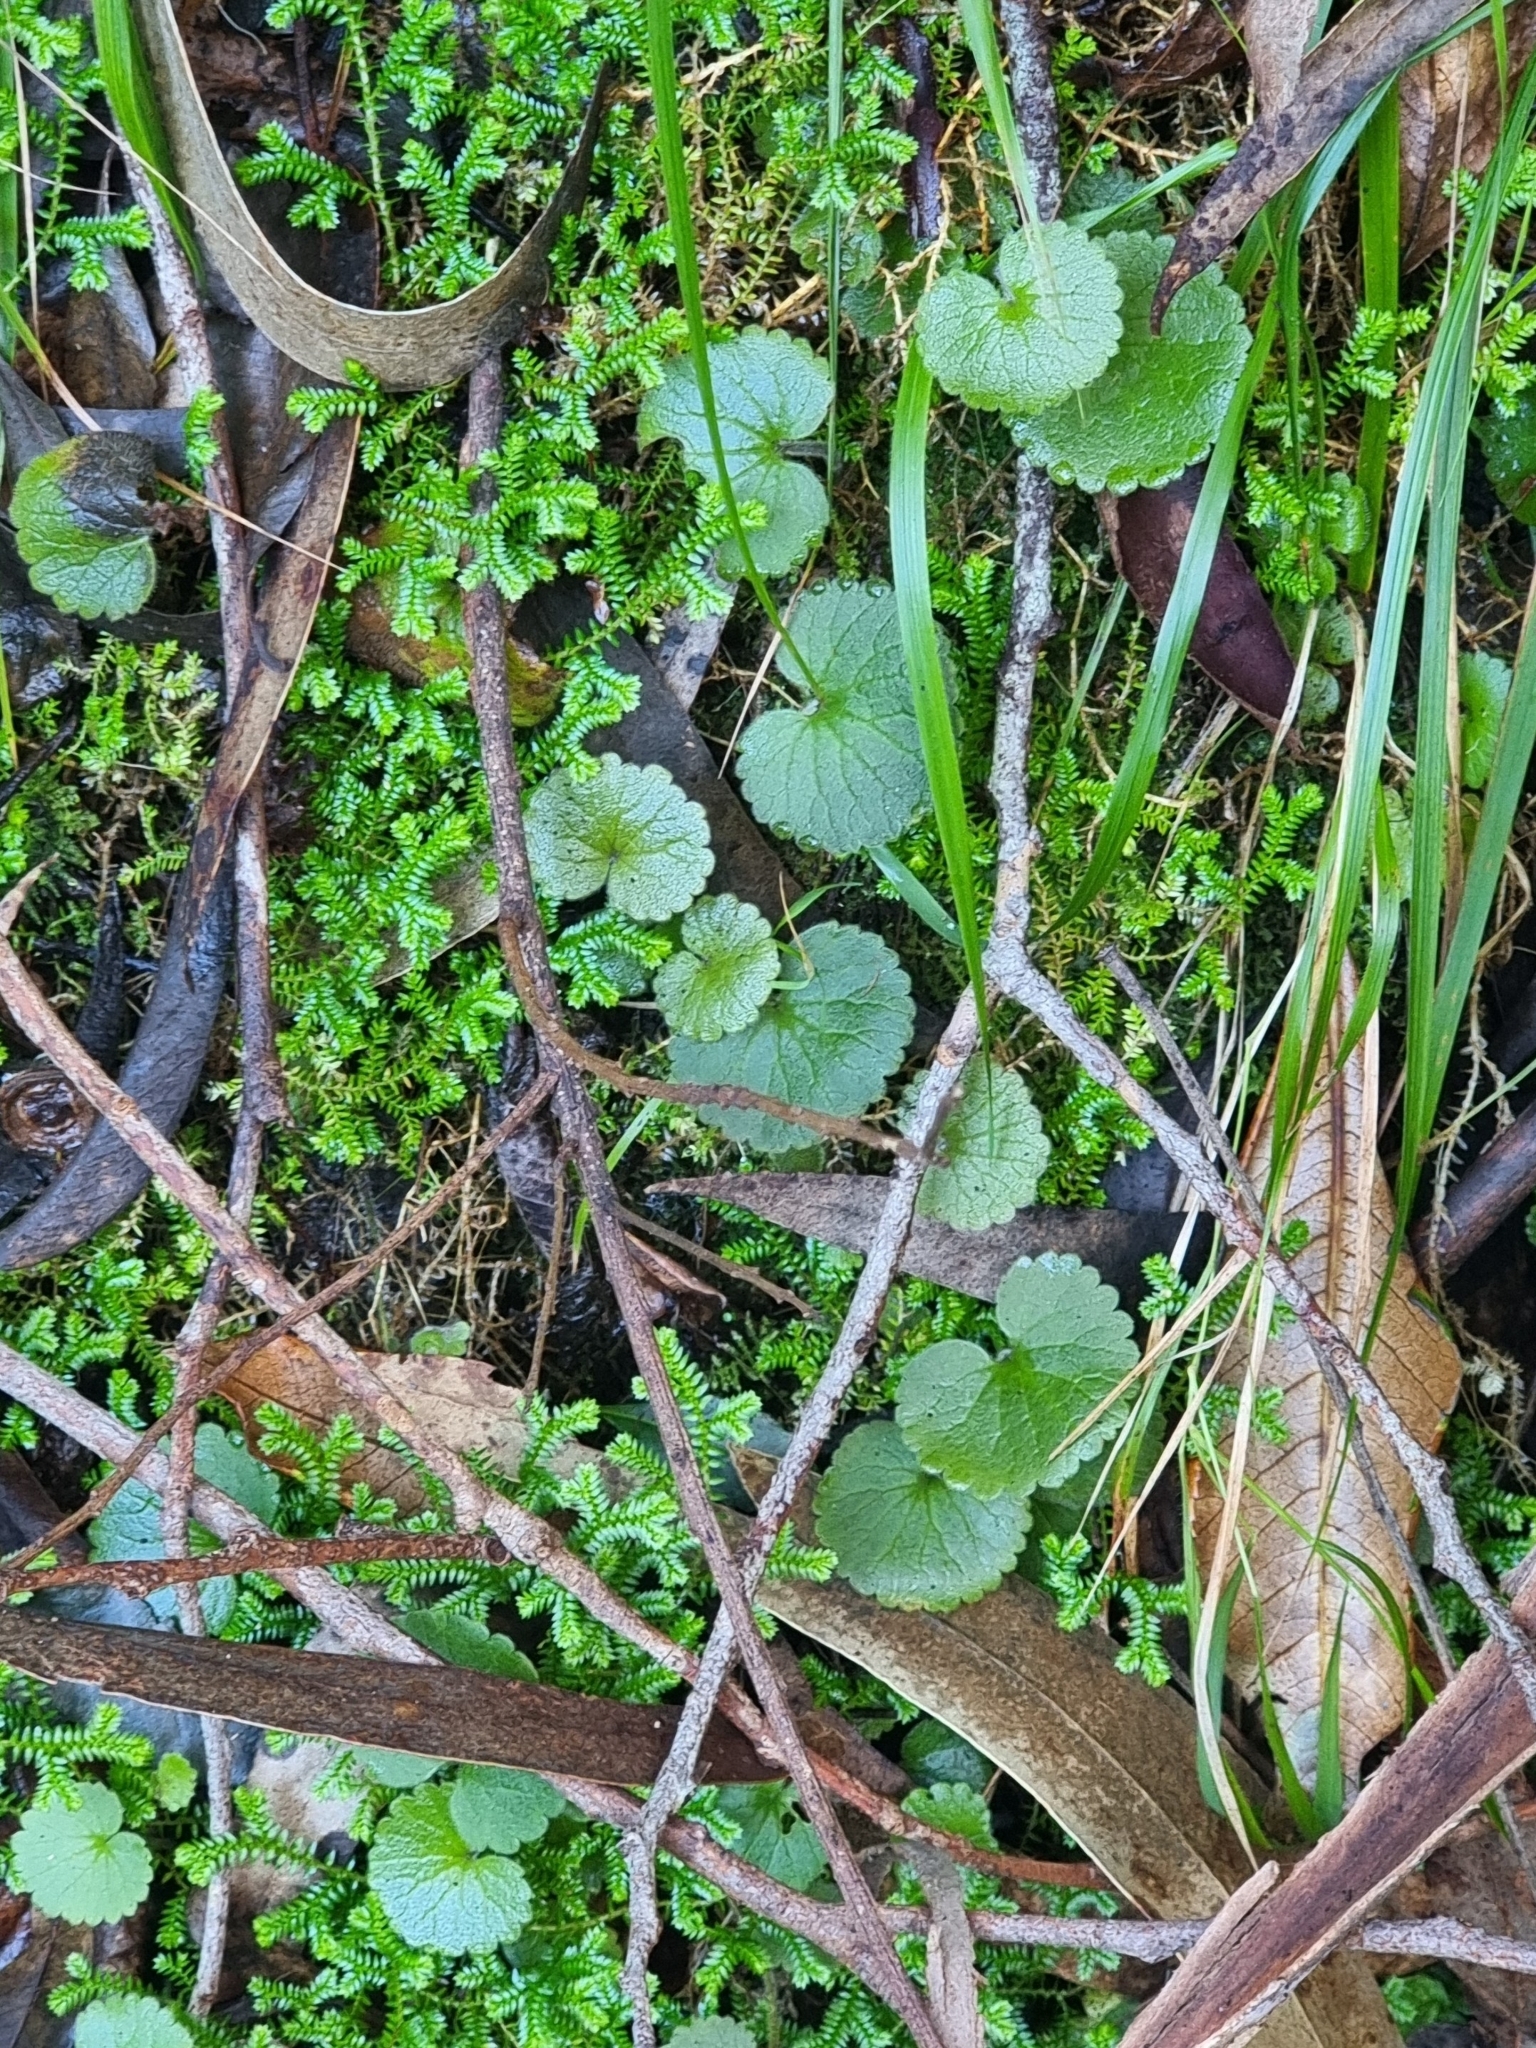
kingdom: Plantae
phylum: Tracheophyta
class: Magnoliopsida
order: Lamiales
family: Plantaginaceae
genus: Sibthorpia
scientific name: Sibthorpia peregrina
